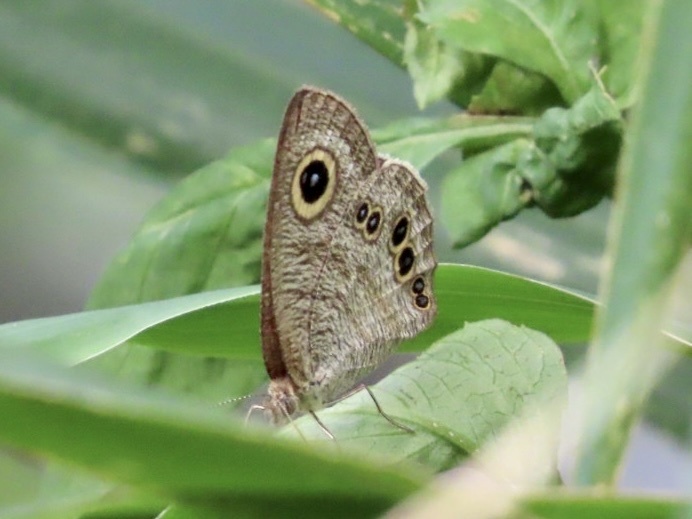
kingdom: Animalia
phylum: Arthropoda
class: Insecta
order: Lepidoptera
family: Nymphalidae
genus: Ypthima
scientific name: Ypthima baldus
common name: Common five-ring
